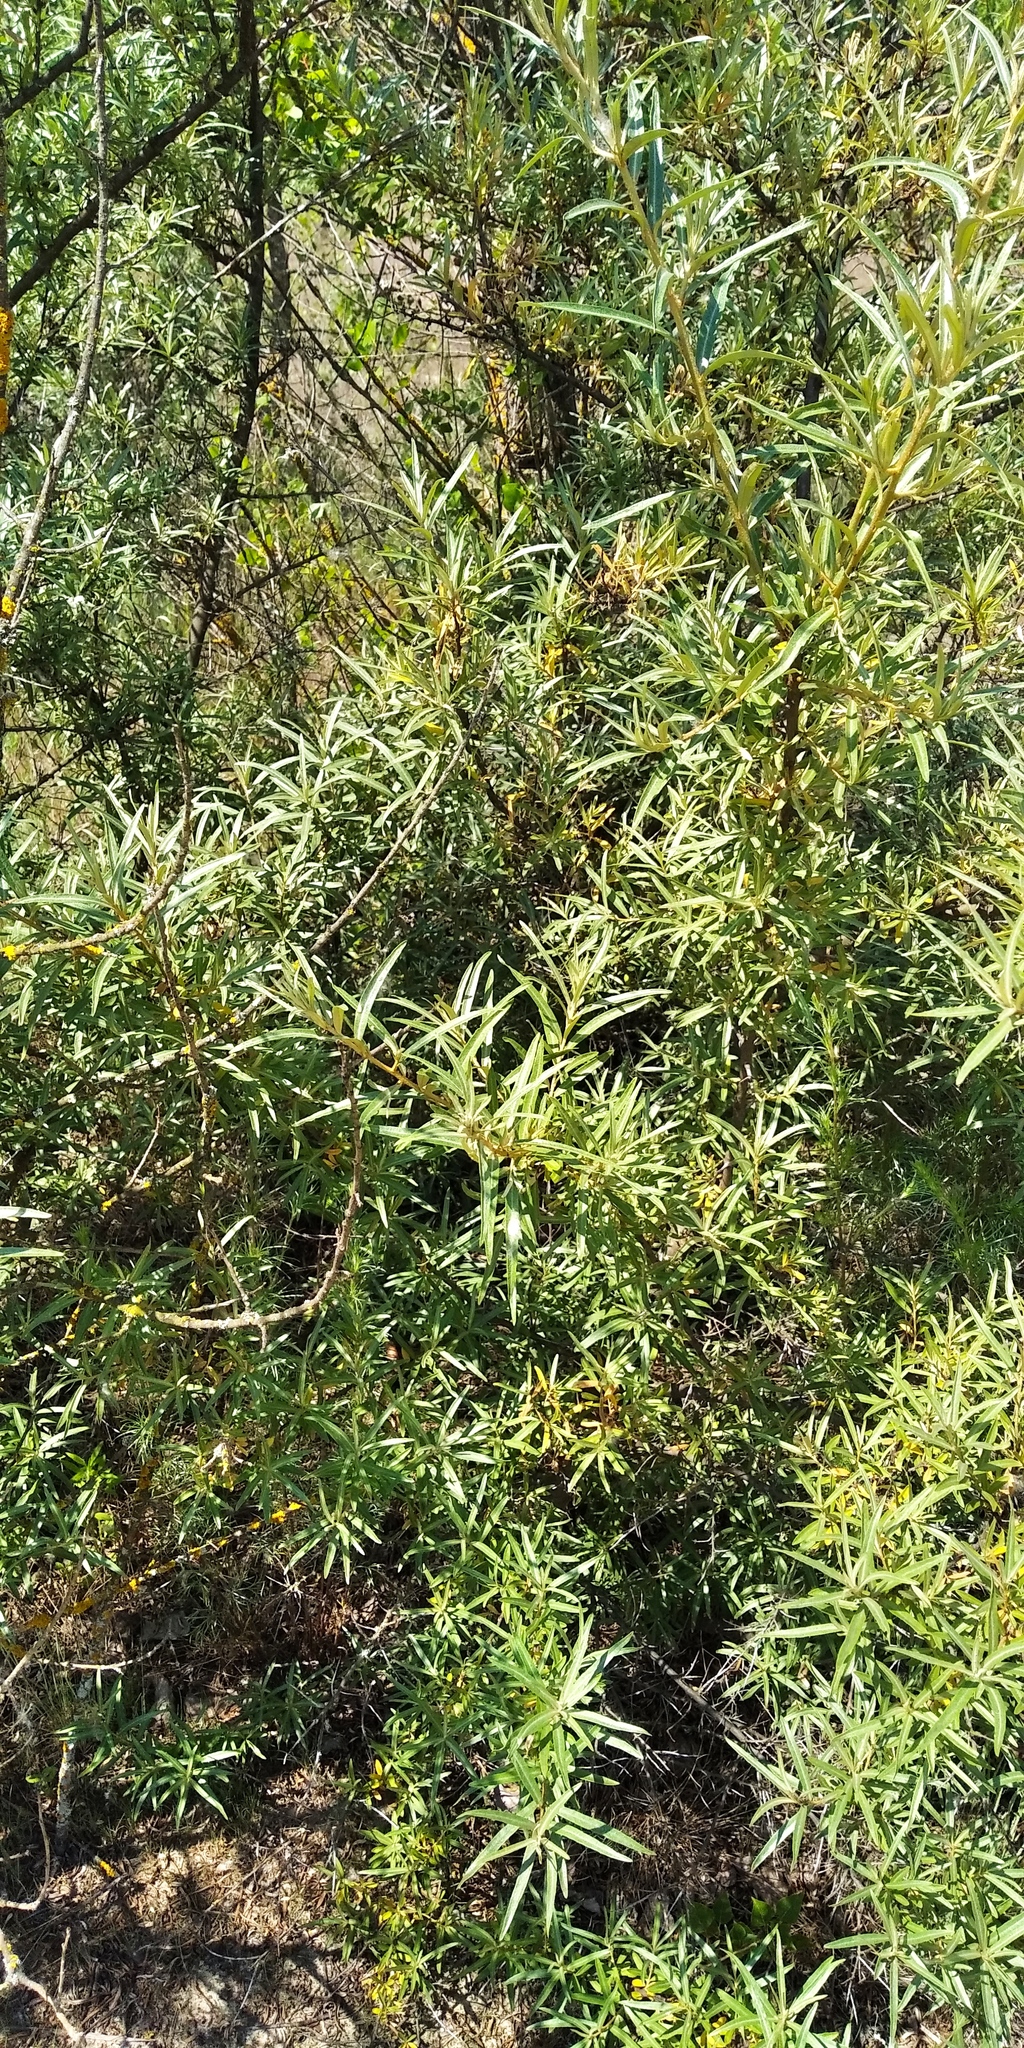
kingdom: Plantae
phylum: Tracheophyta
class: Magnoliopsida
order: Malpighiales
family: Salicaceae
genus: Salix
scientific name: Salix rosmarinifolia
